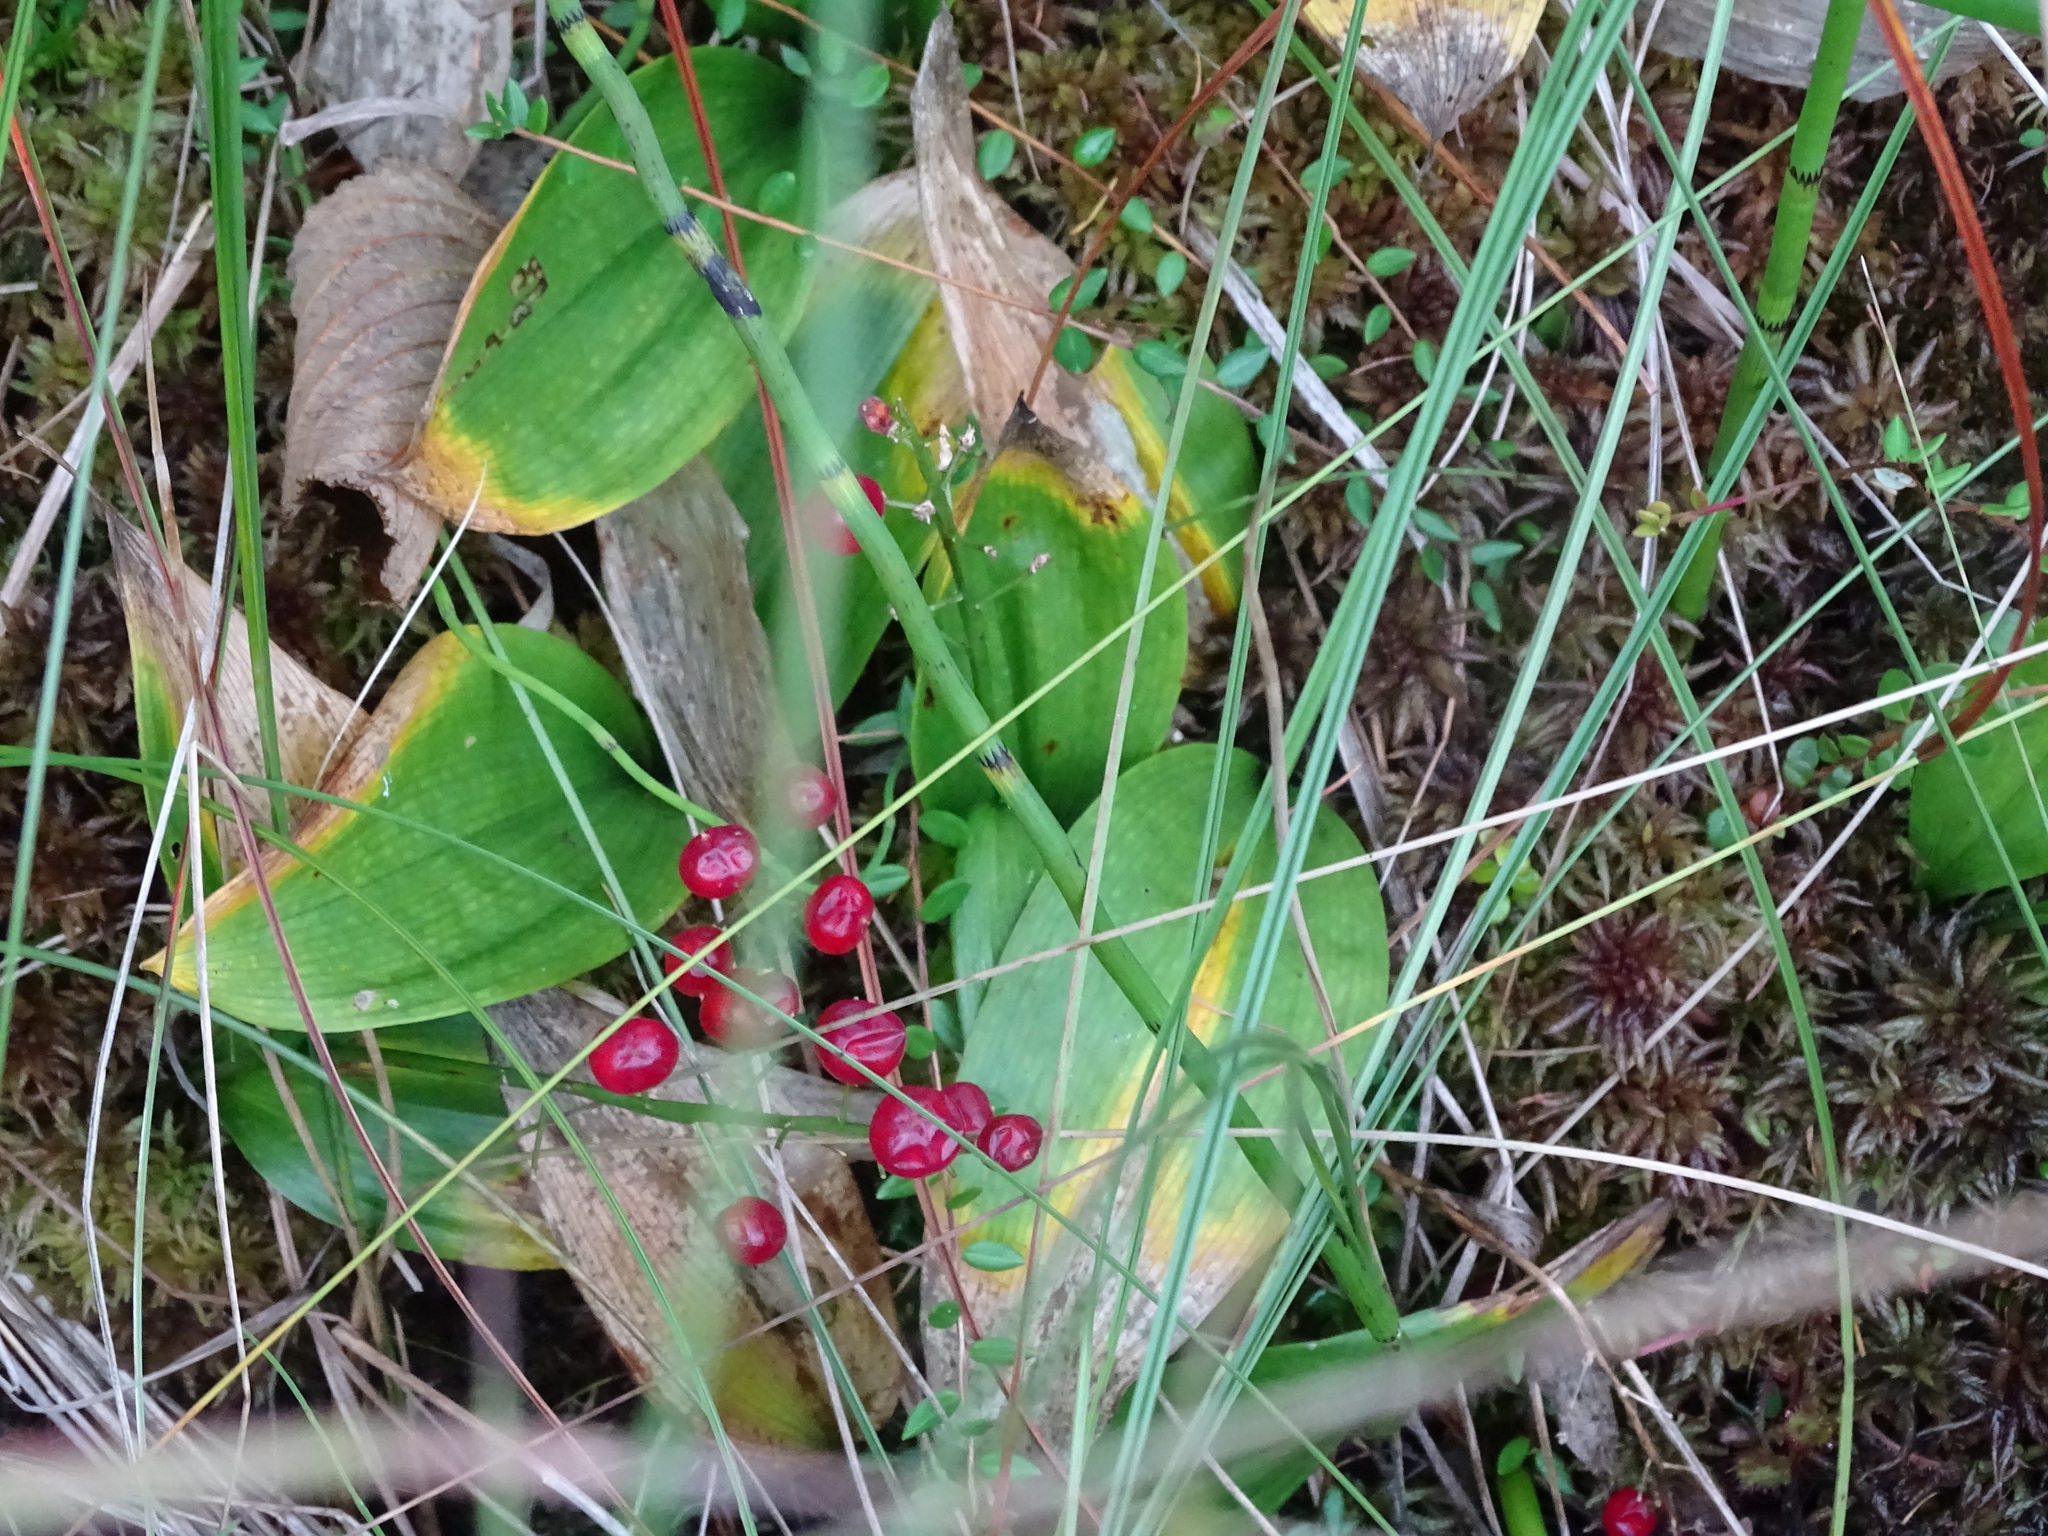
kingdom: Plantae
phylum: Tracheophyta
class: Liliopsida
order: Asparagales
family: Asparagaceae
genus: Maianthemum
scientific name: Maianthemum trifolium
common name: Swamp false solomon's seal
